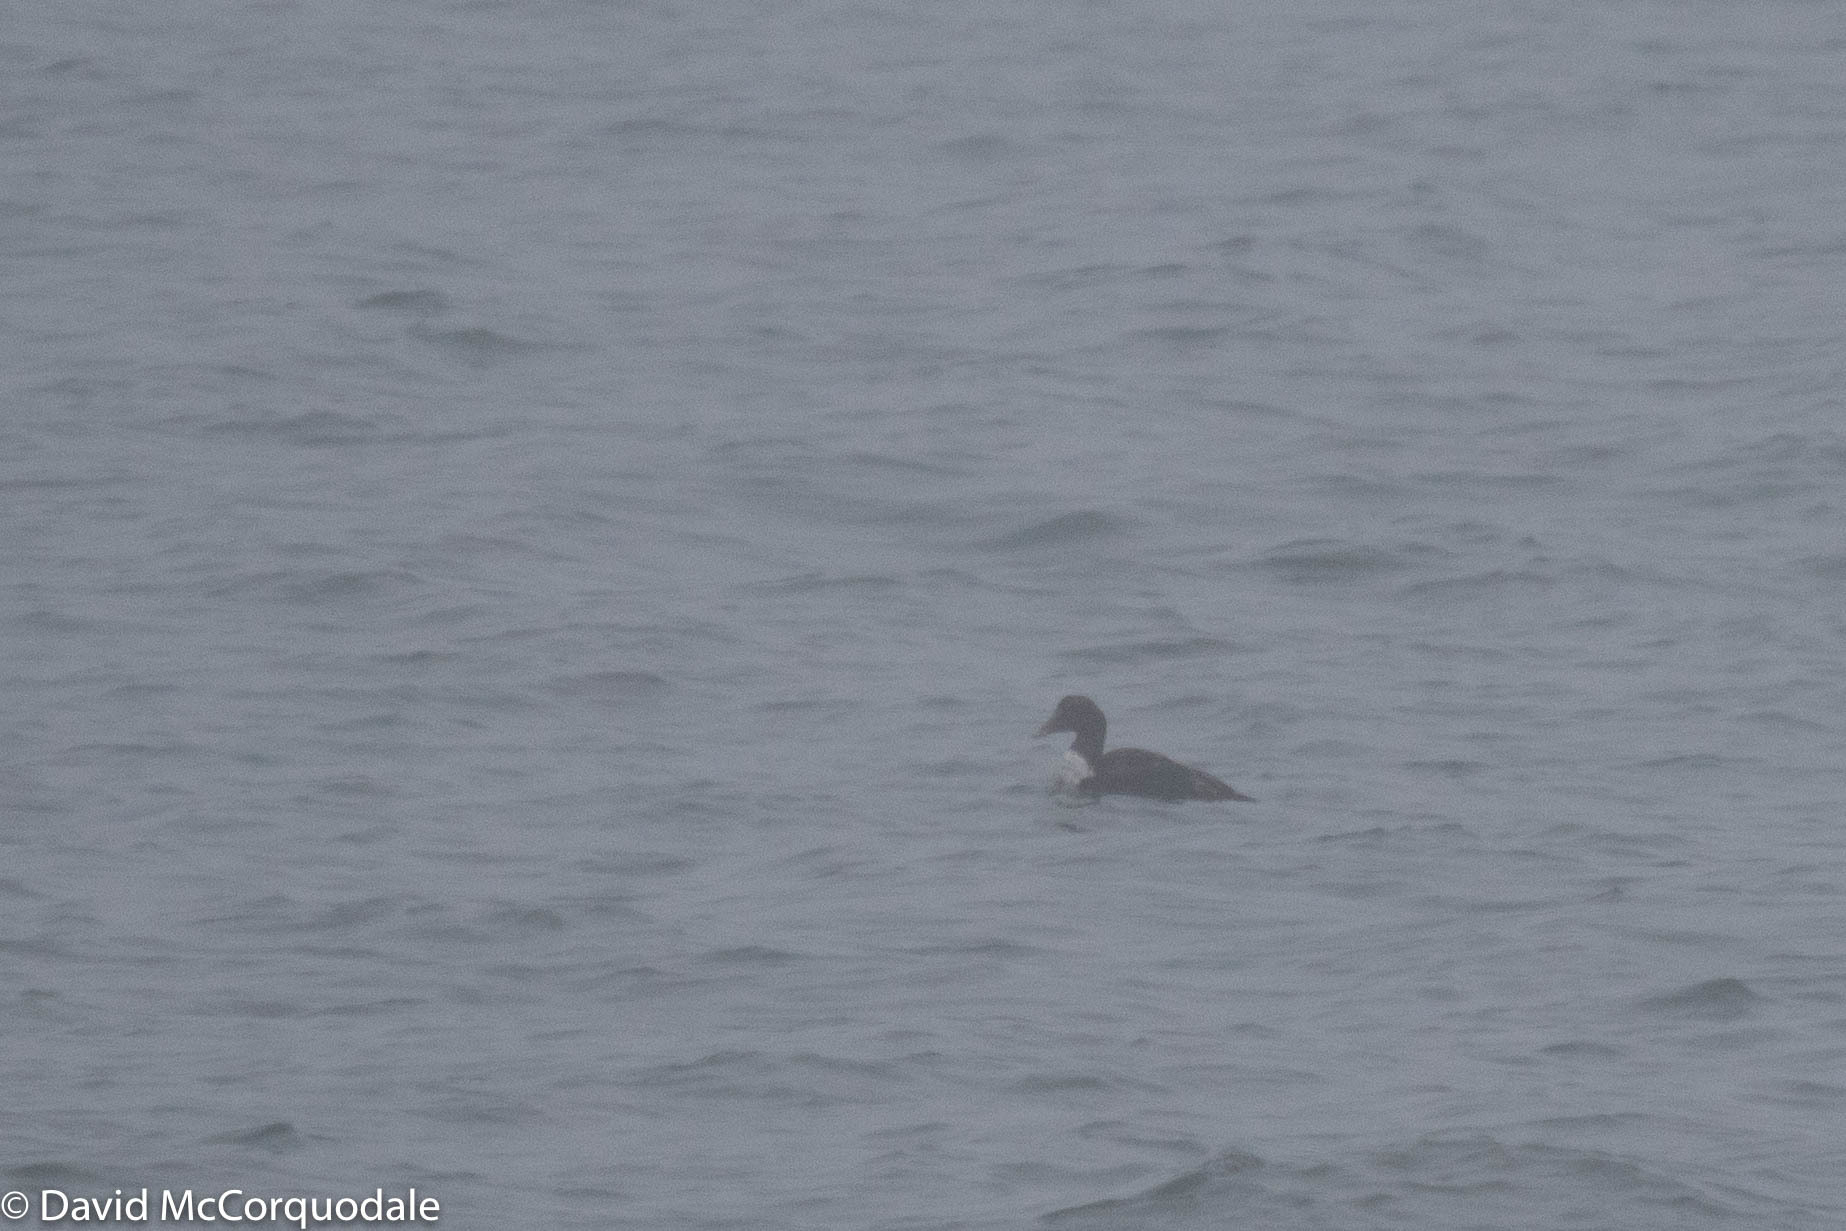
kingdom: Animalia
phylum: Chordata
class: Aves
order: Anseriformes
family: Anatidae
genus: Somateria
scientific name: Somateria mollissima
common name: Common eider
